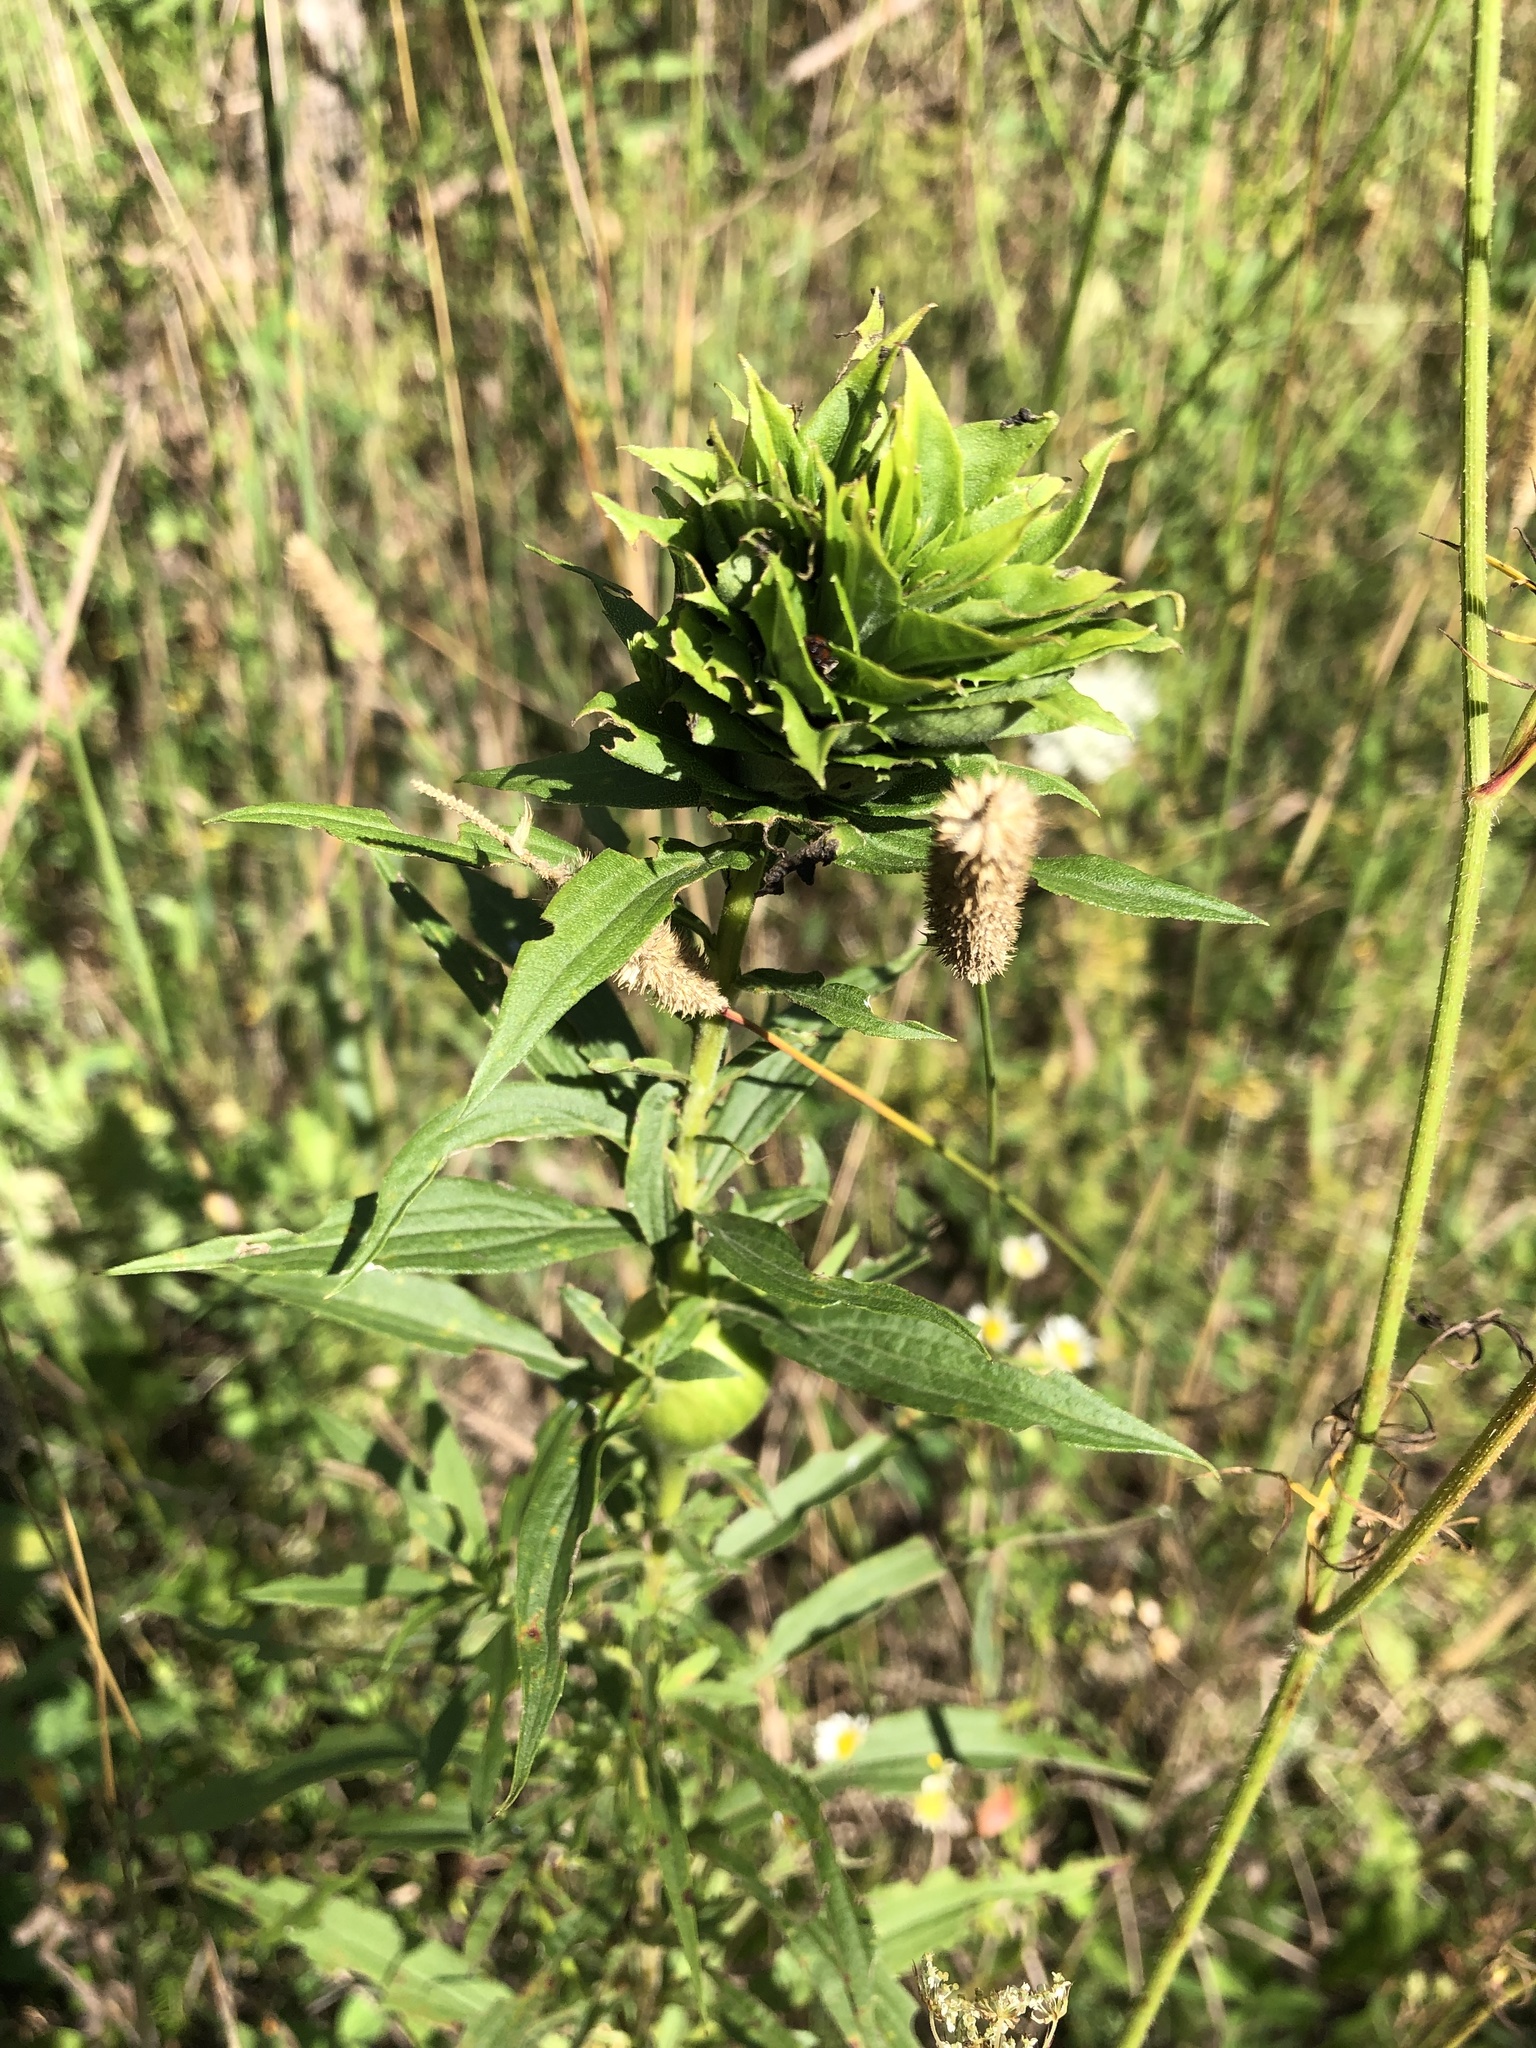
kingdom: Animalia
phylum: Arthropoda
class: Insecta
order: Diptera
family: Cecidomyiidae
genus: Rhopalomyia
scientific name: Rhopalomyia solidaginis
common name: Goldenrod bunch gall midge
